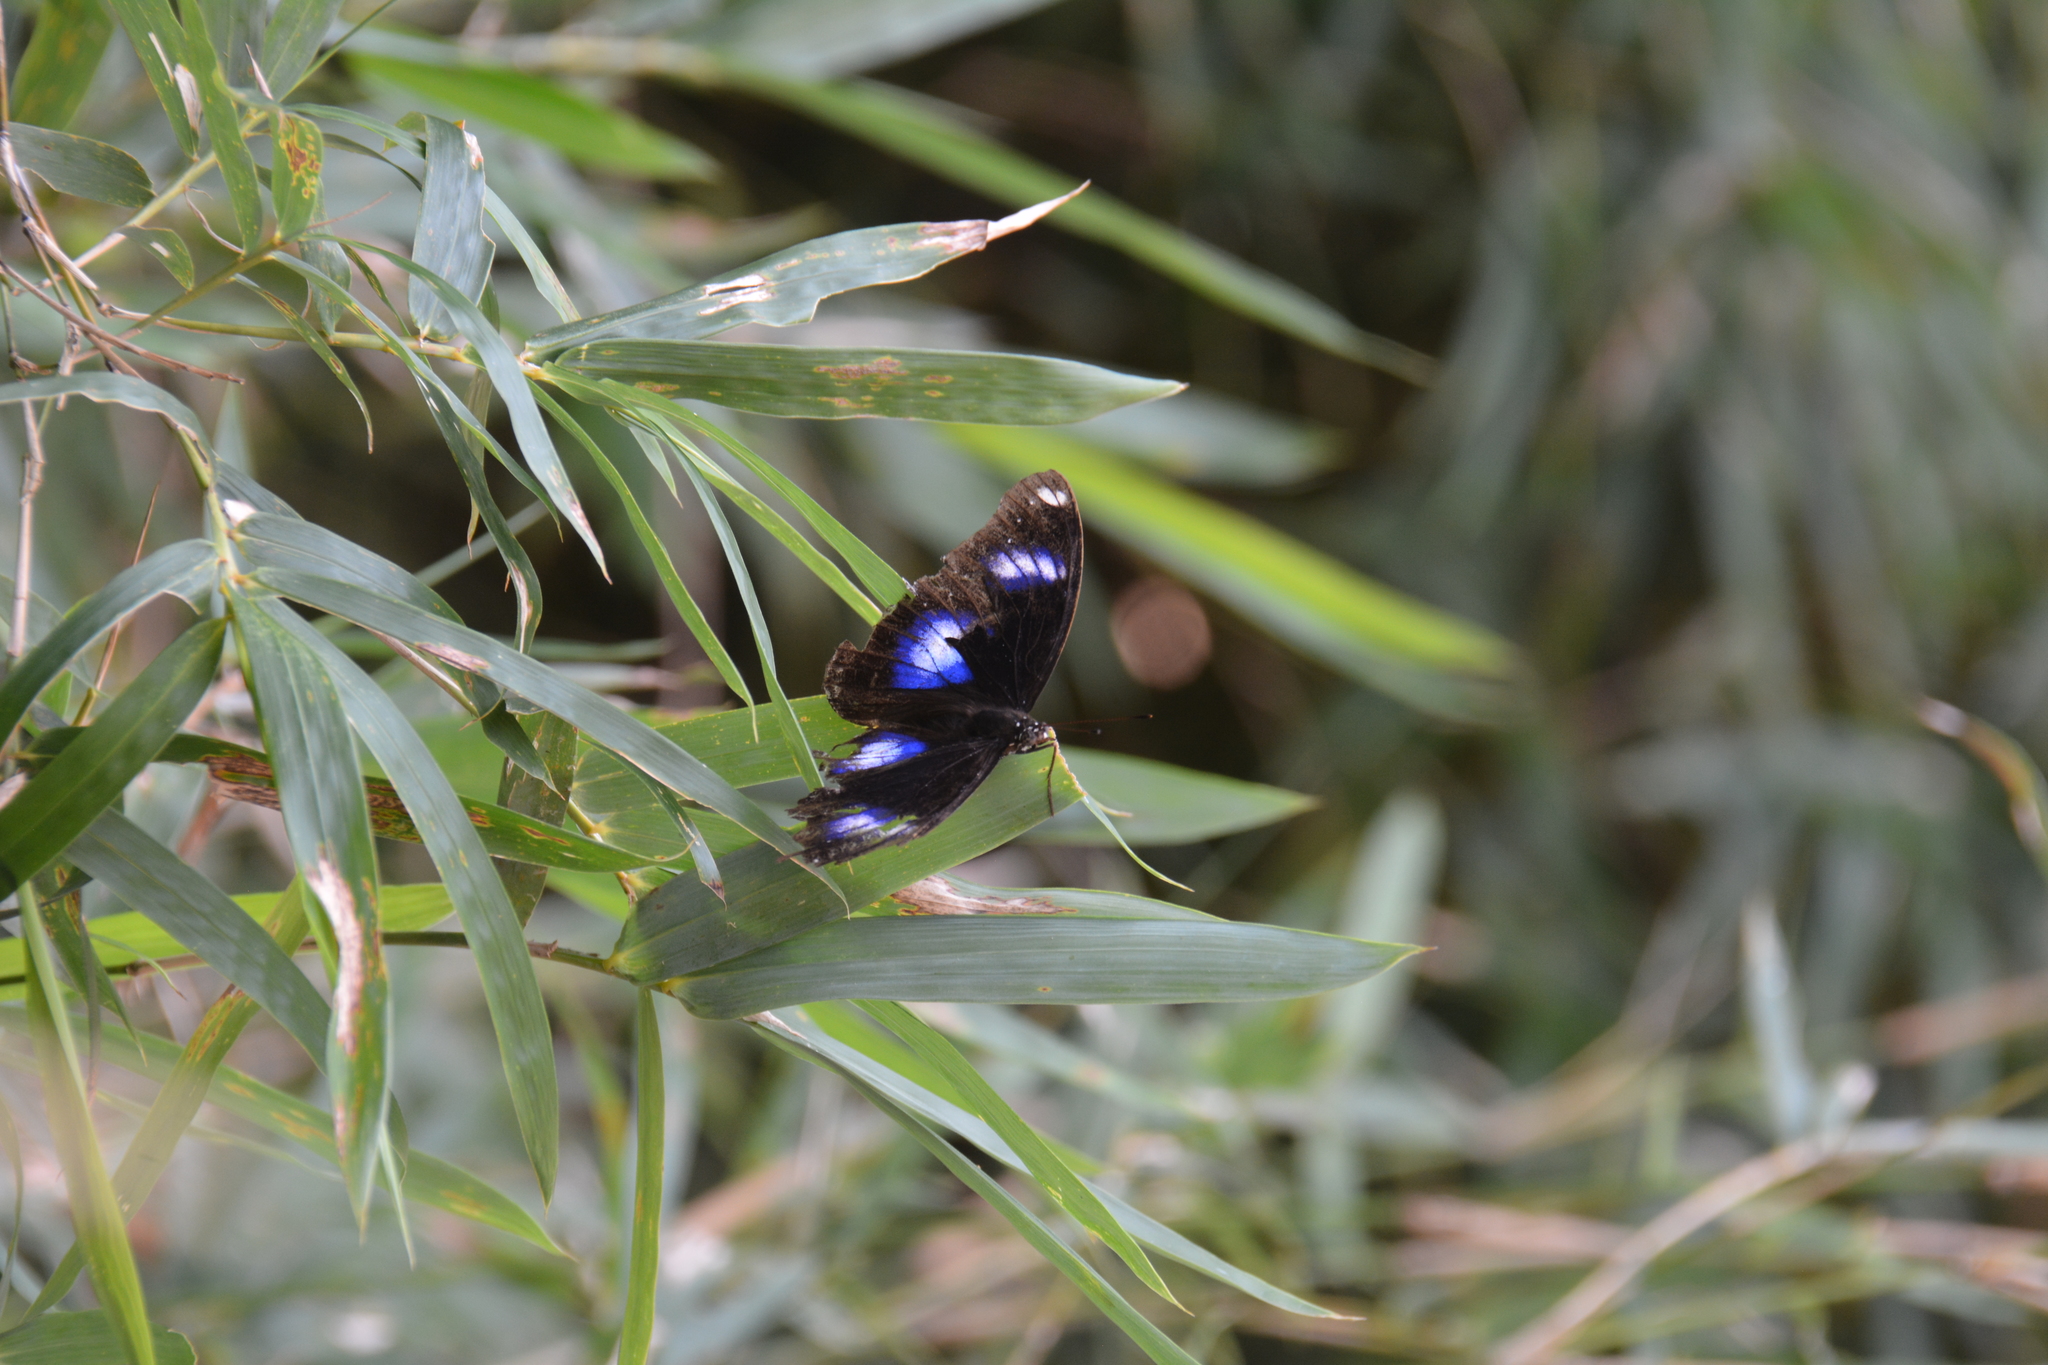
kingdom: Animalia
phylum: Arthropoda
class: Insecta
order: Lepidoptera
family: Nymphalidae
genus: Hypolimnas
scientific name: Hypolimnas bolina
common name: Great eggfly
